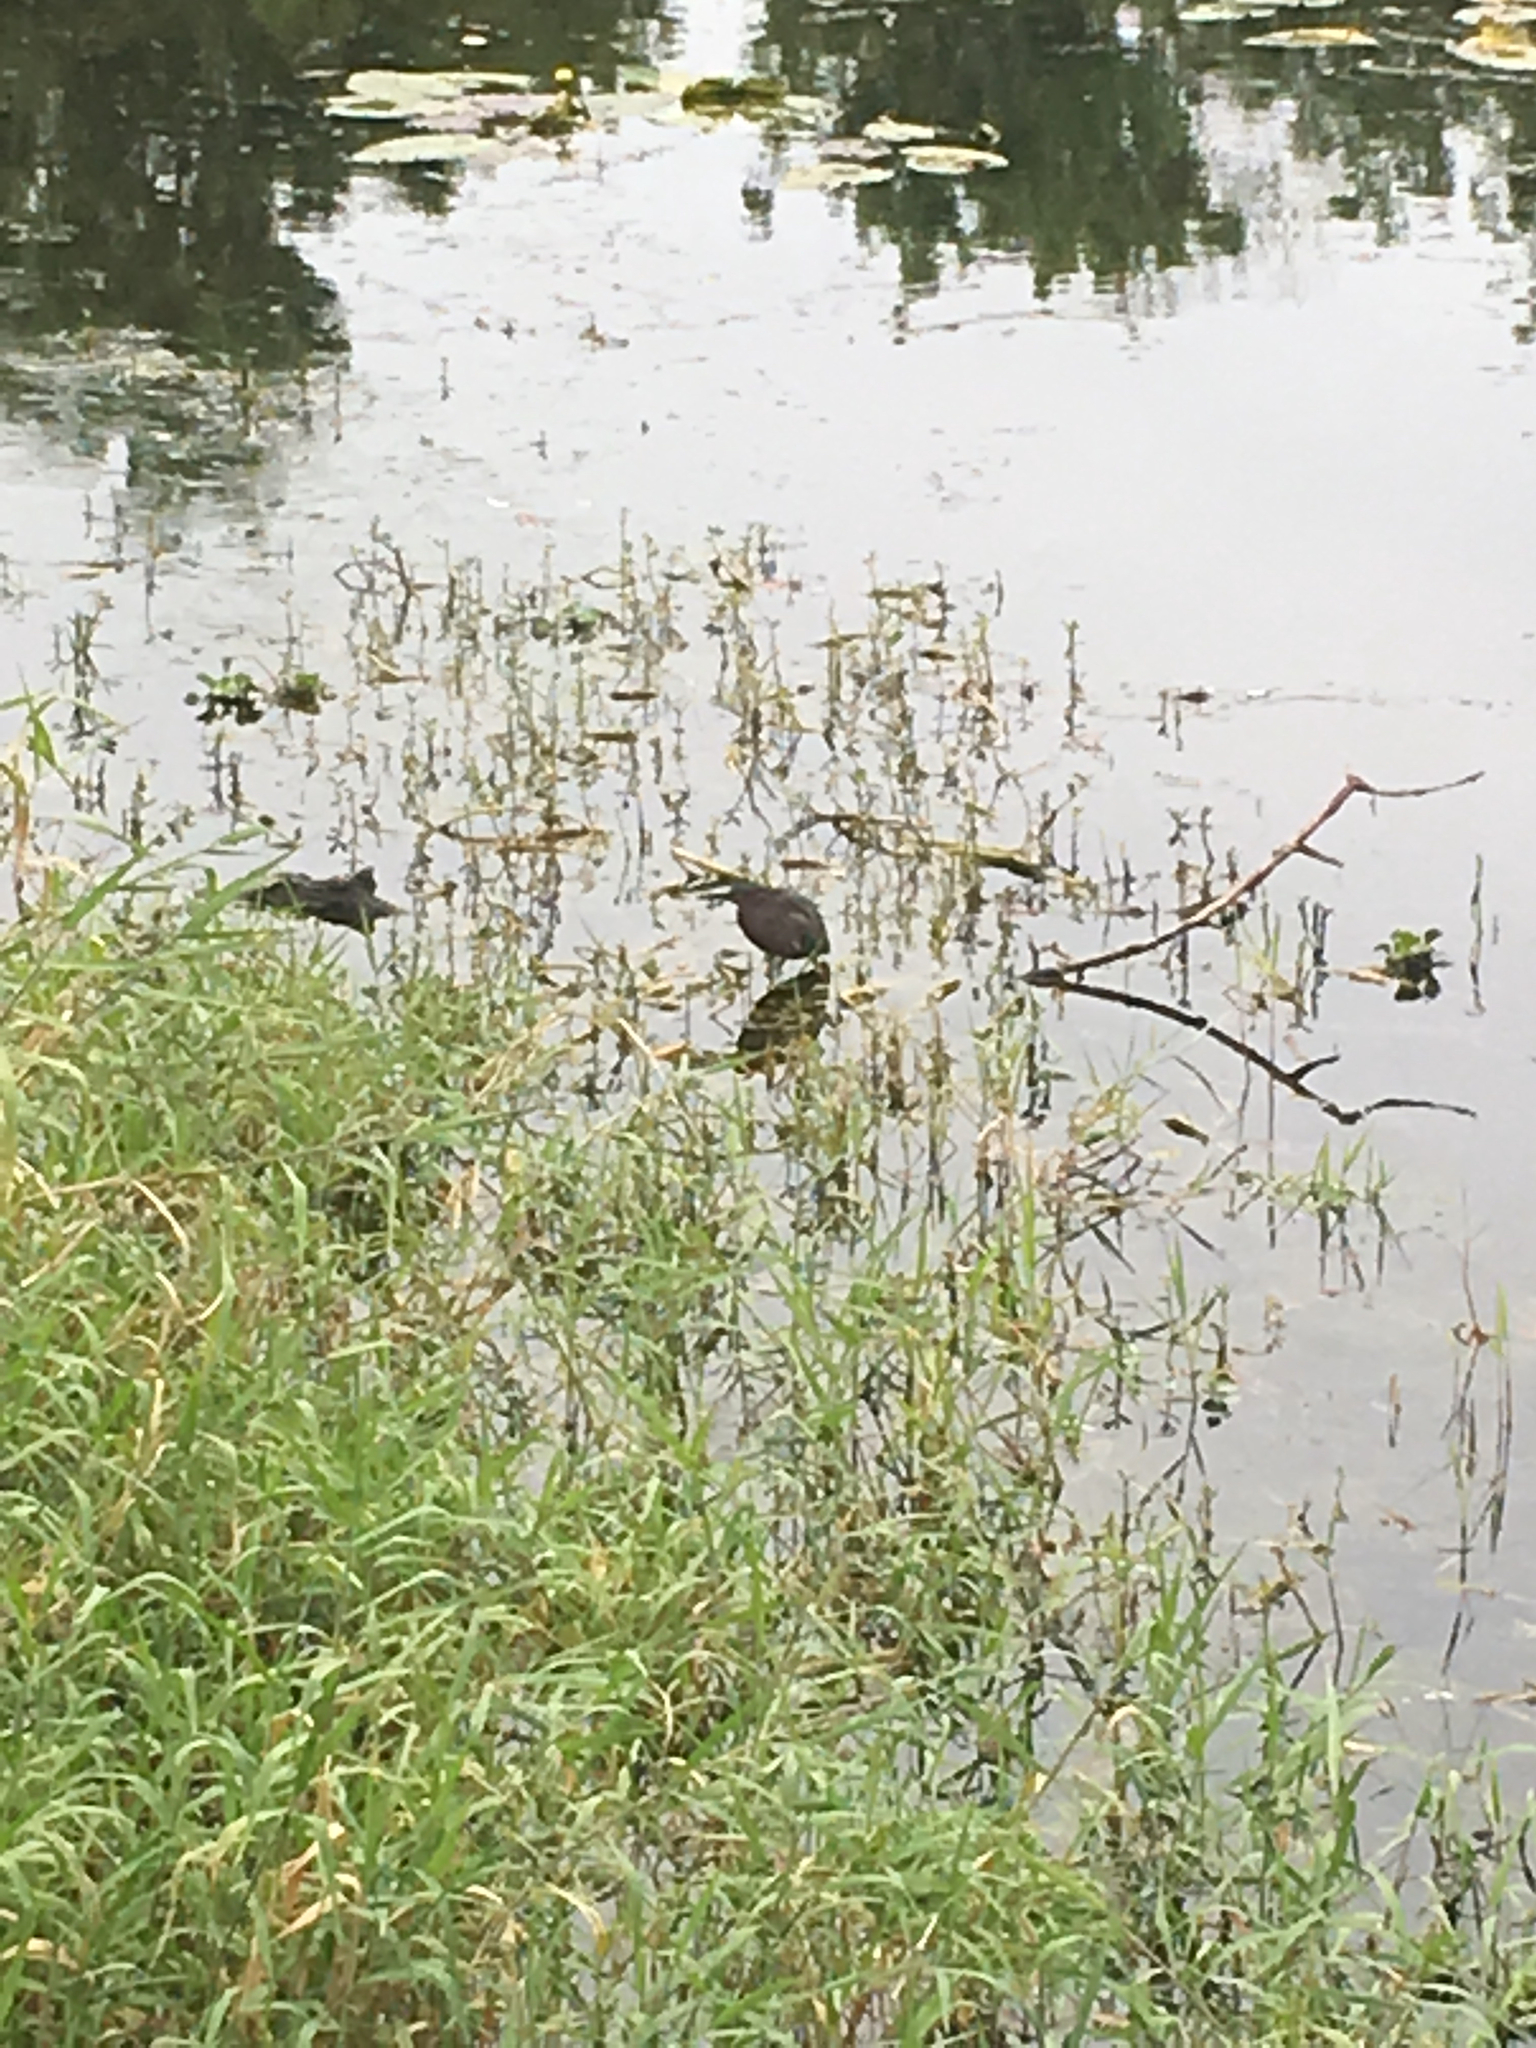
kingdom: Animalia
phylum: Chordata
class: Aves
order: Pelecaniformes
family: Ardeidae
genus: Butorides
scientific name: Butorides virescens
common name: Green heron
